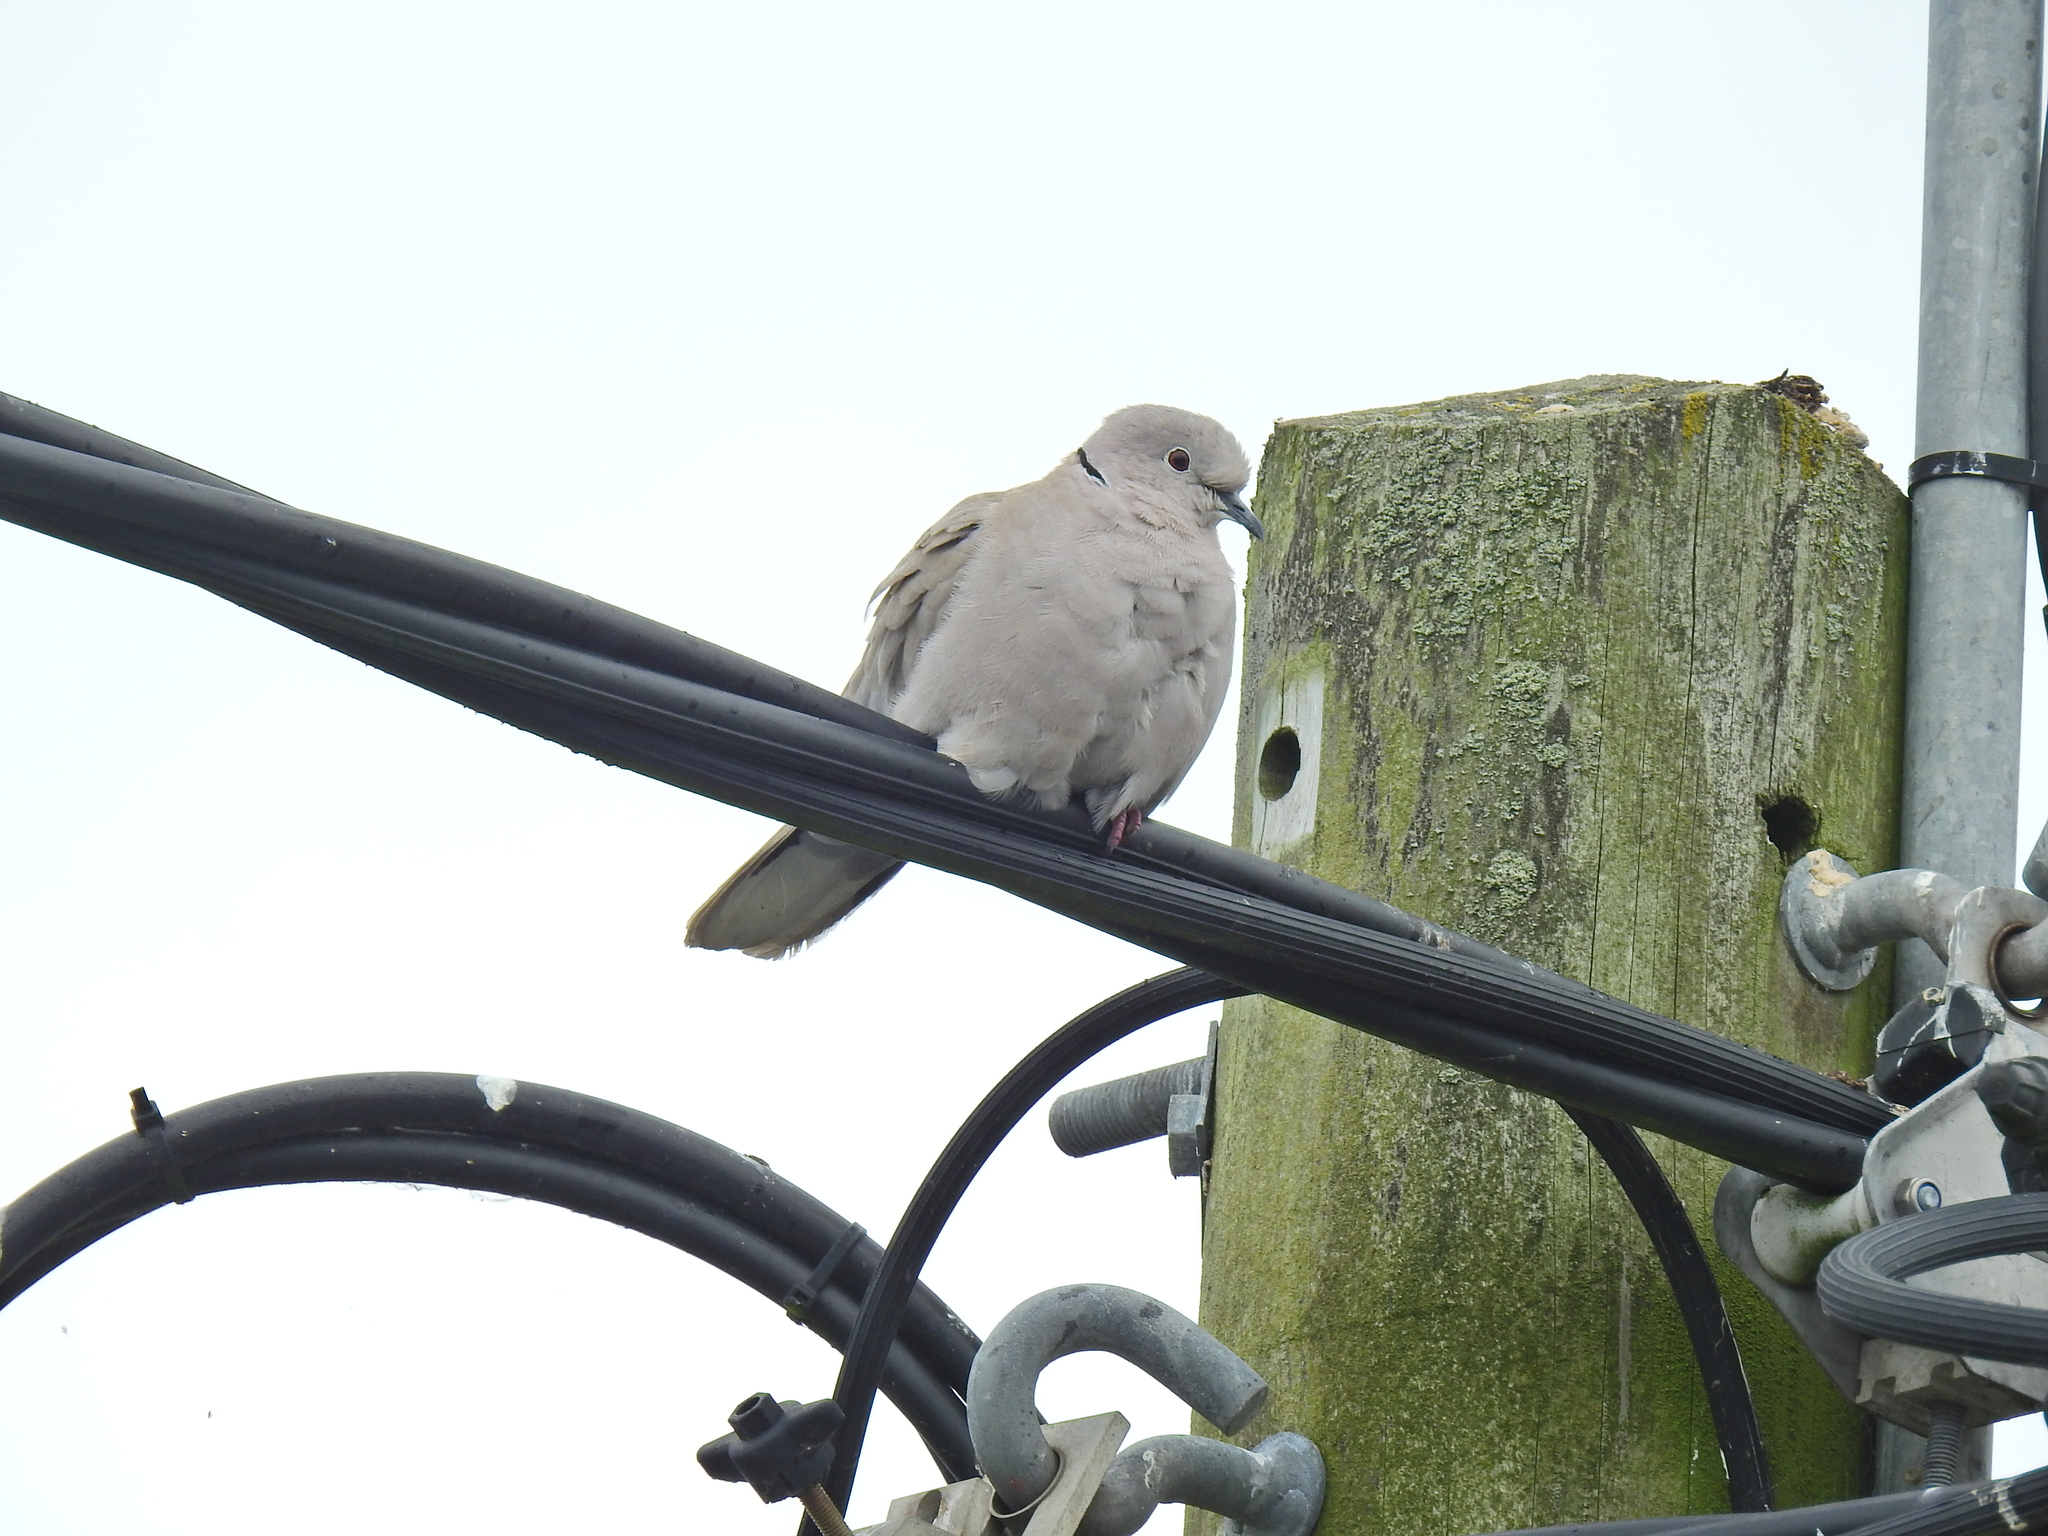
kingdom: Animalia
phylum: Chordata
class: Aves
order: Columbiformes
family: Columbidae
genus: Streptopelia
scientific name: Streptopelia decaocto
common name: Eurasian collared dove
